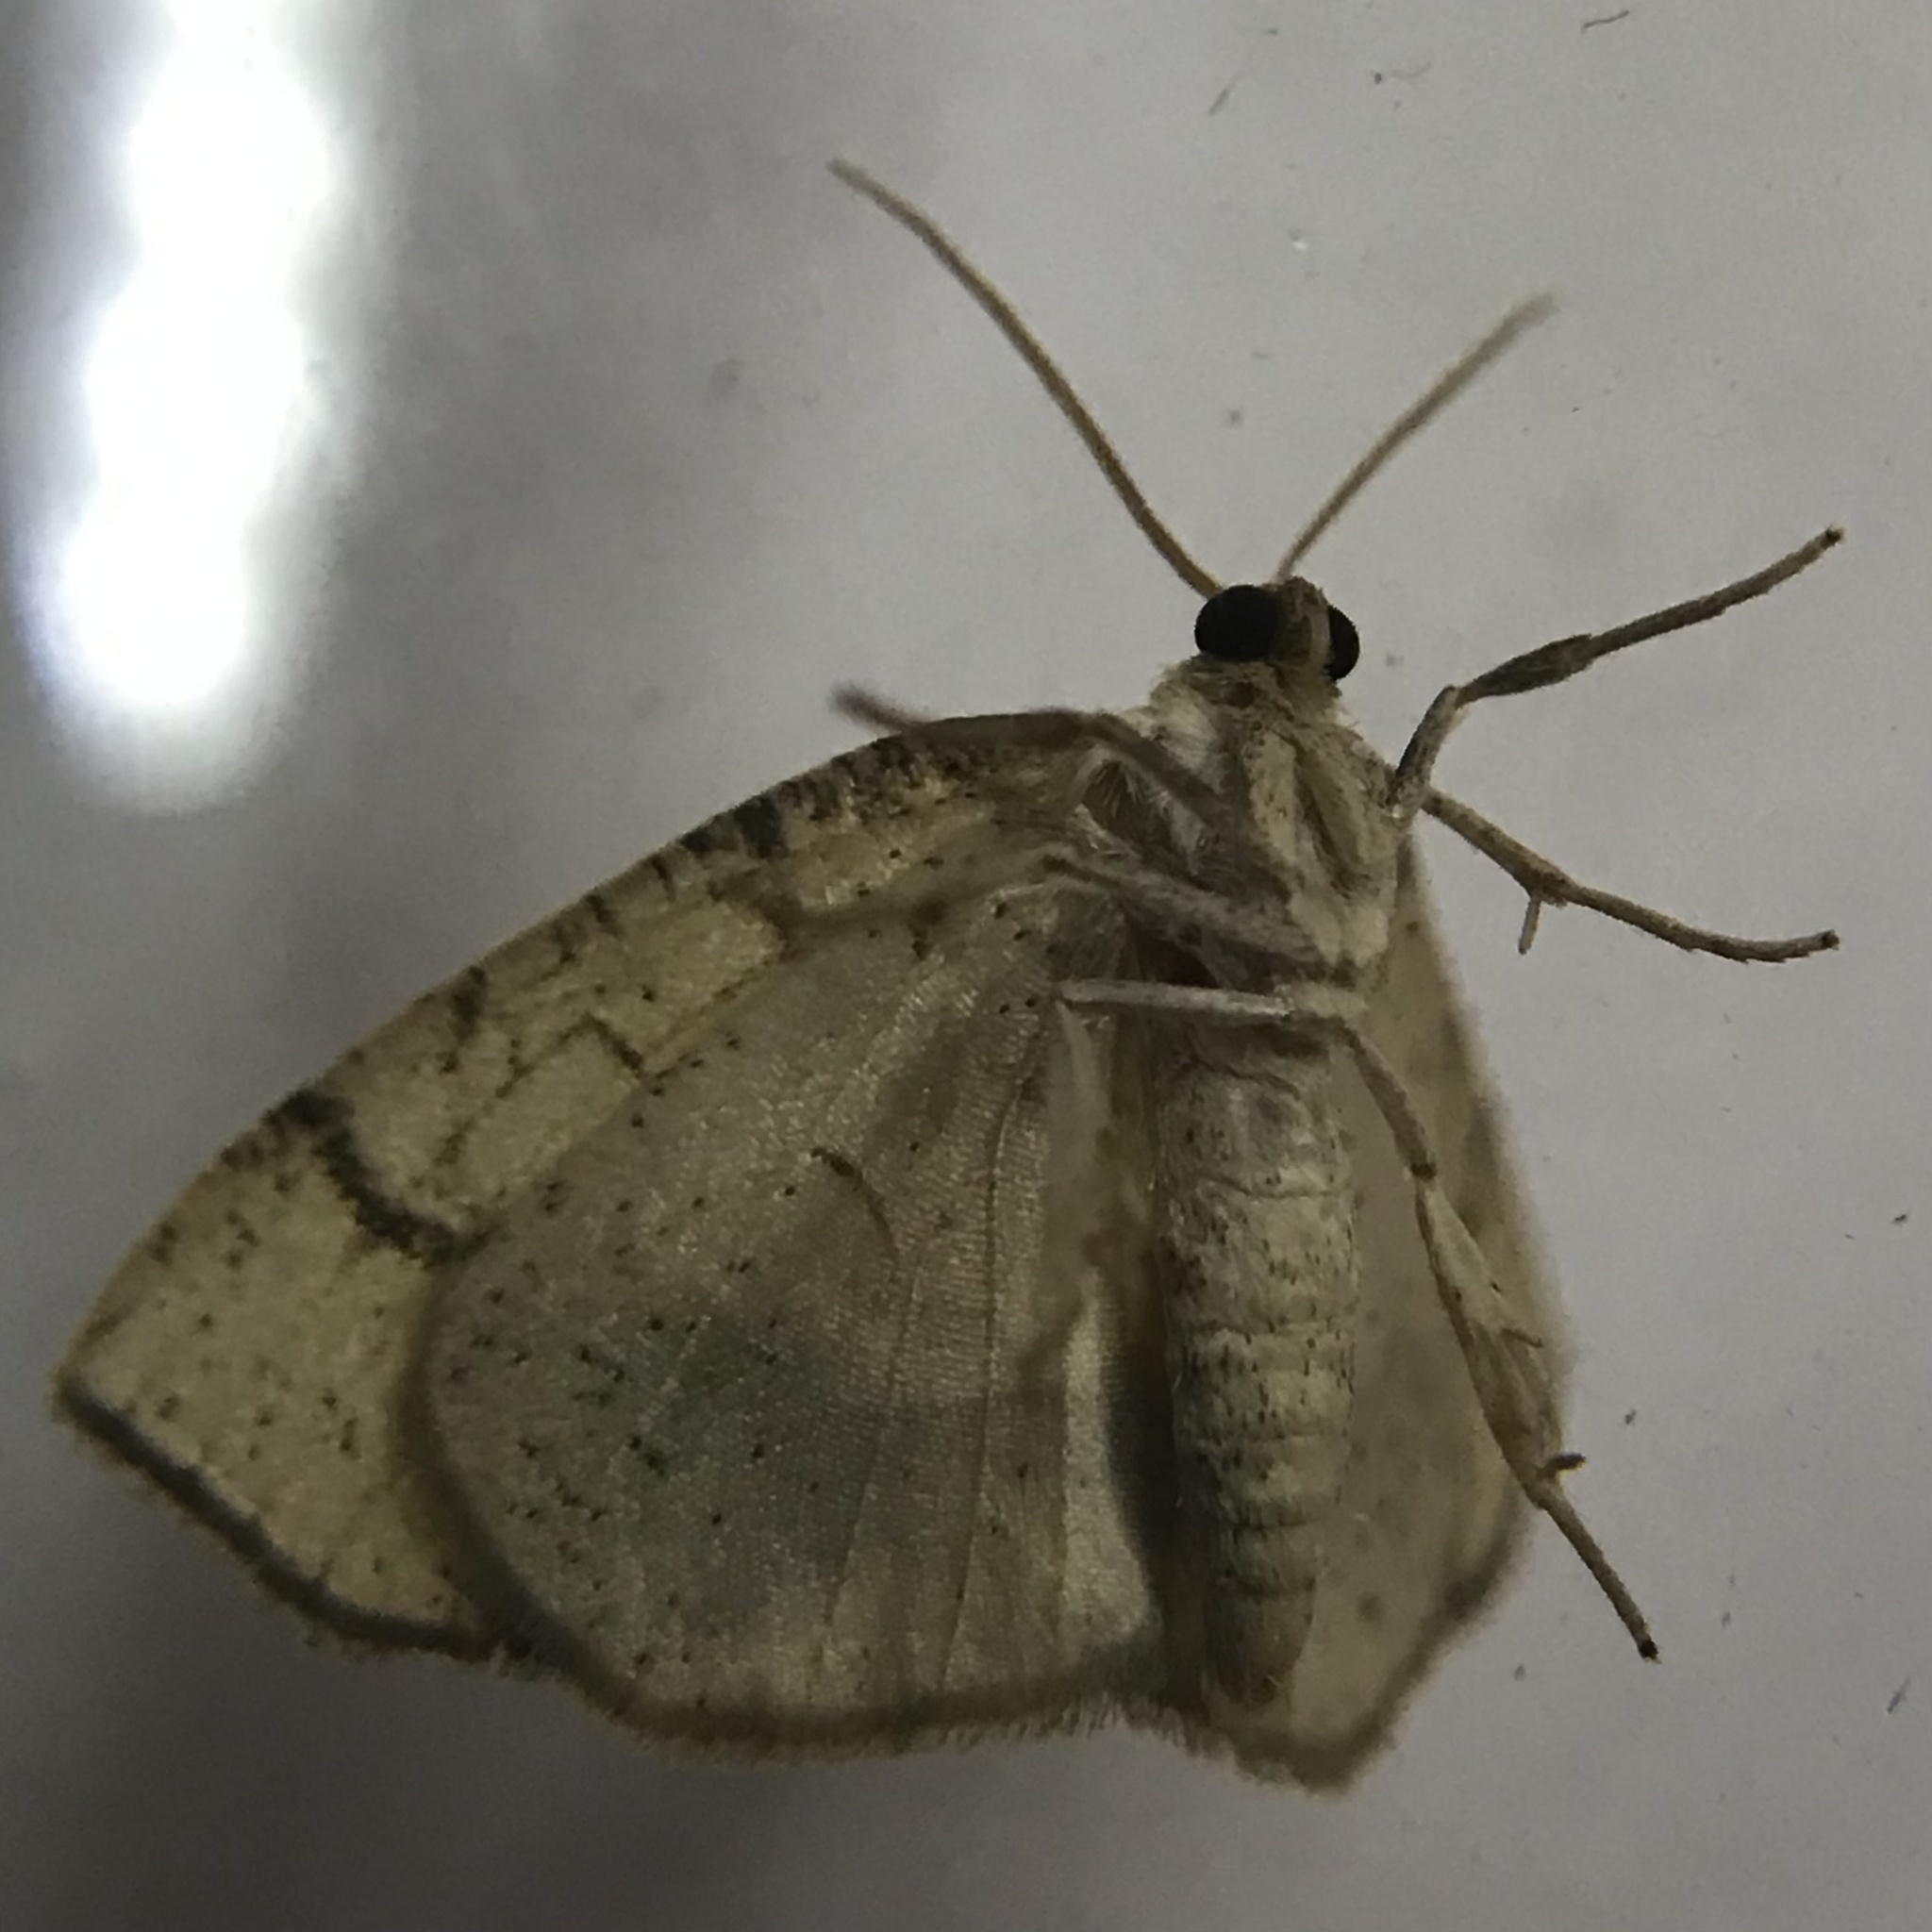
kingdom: Animalia
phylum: Arthropoda
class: Insecta
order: Lepidoptera
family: Geometridae
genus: Nematocampa
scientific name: Nematocampa resistaria
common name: Horned spanworm moth
